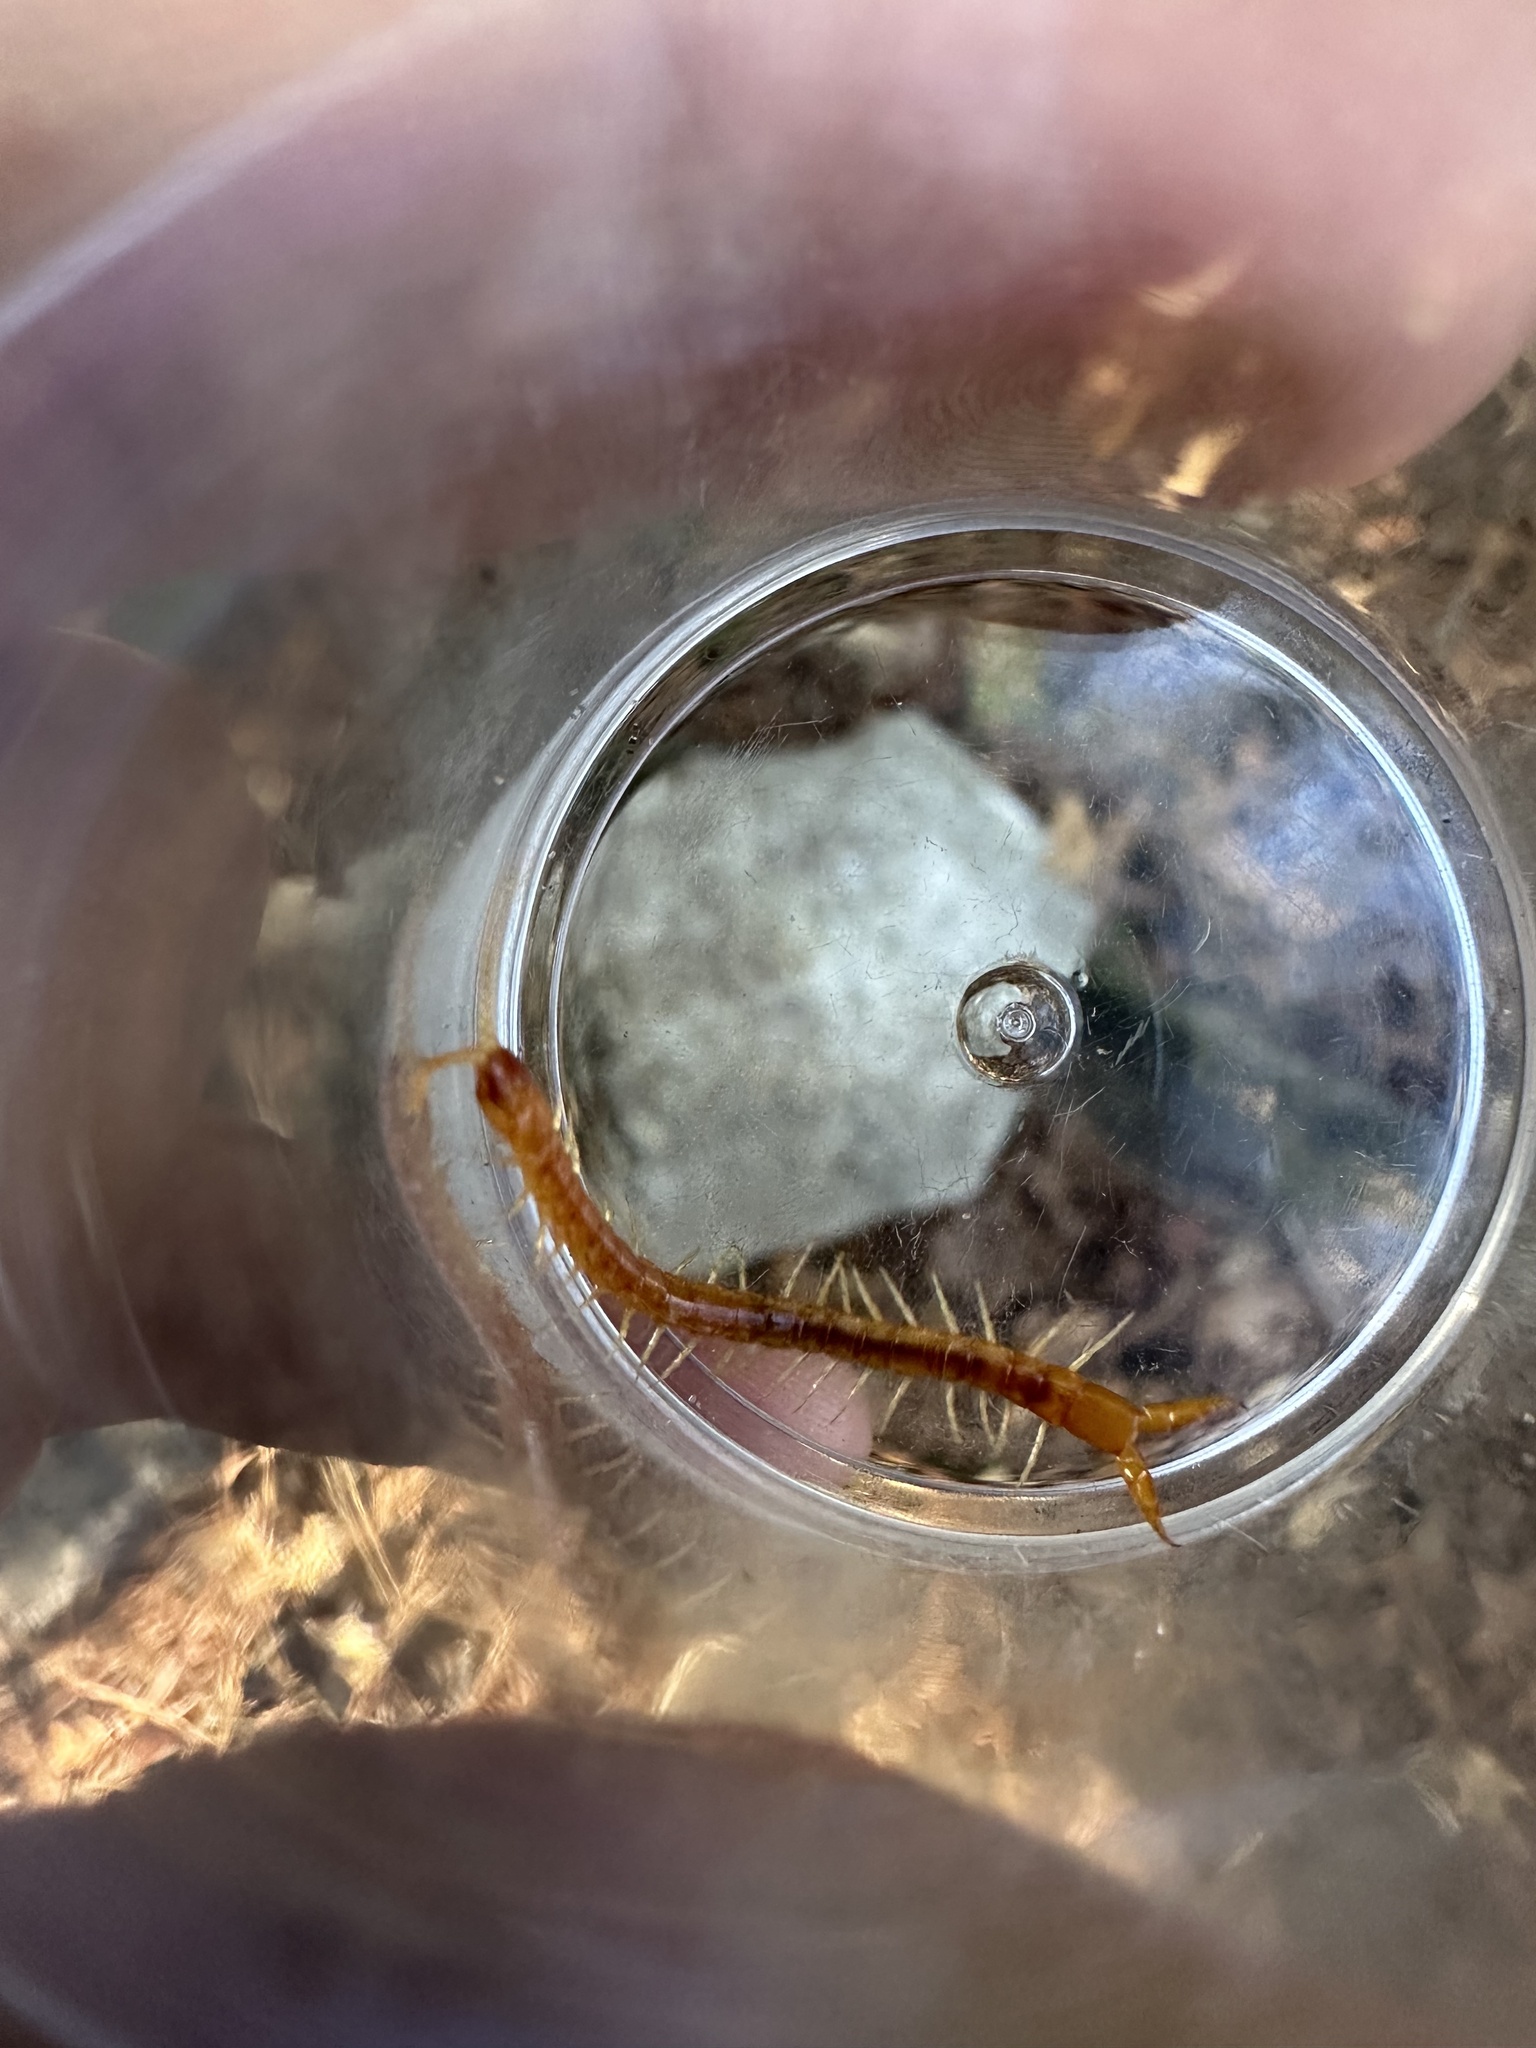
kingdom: Animalia
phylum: Arthropoda
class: Chilopoda
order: Scolopendromorpha
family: Cryptopidae
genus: Theatops
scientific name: Theatops posticus
